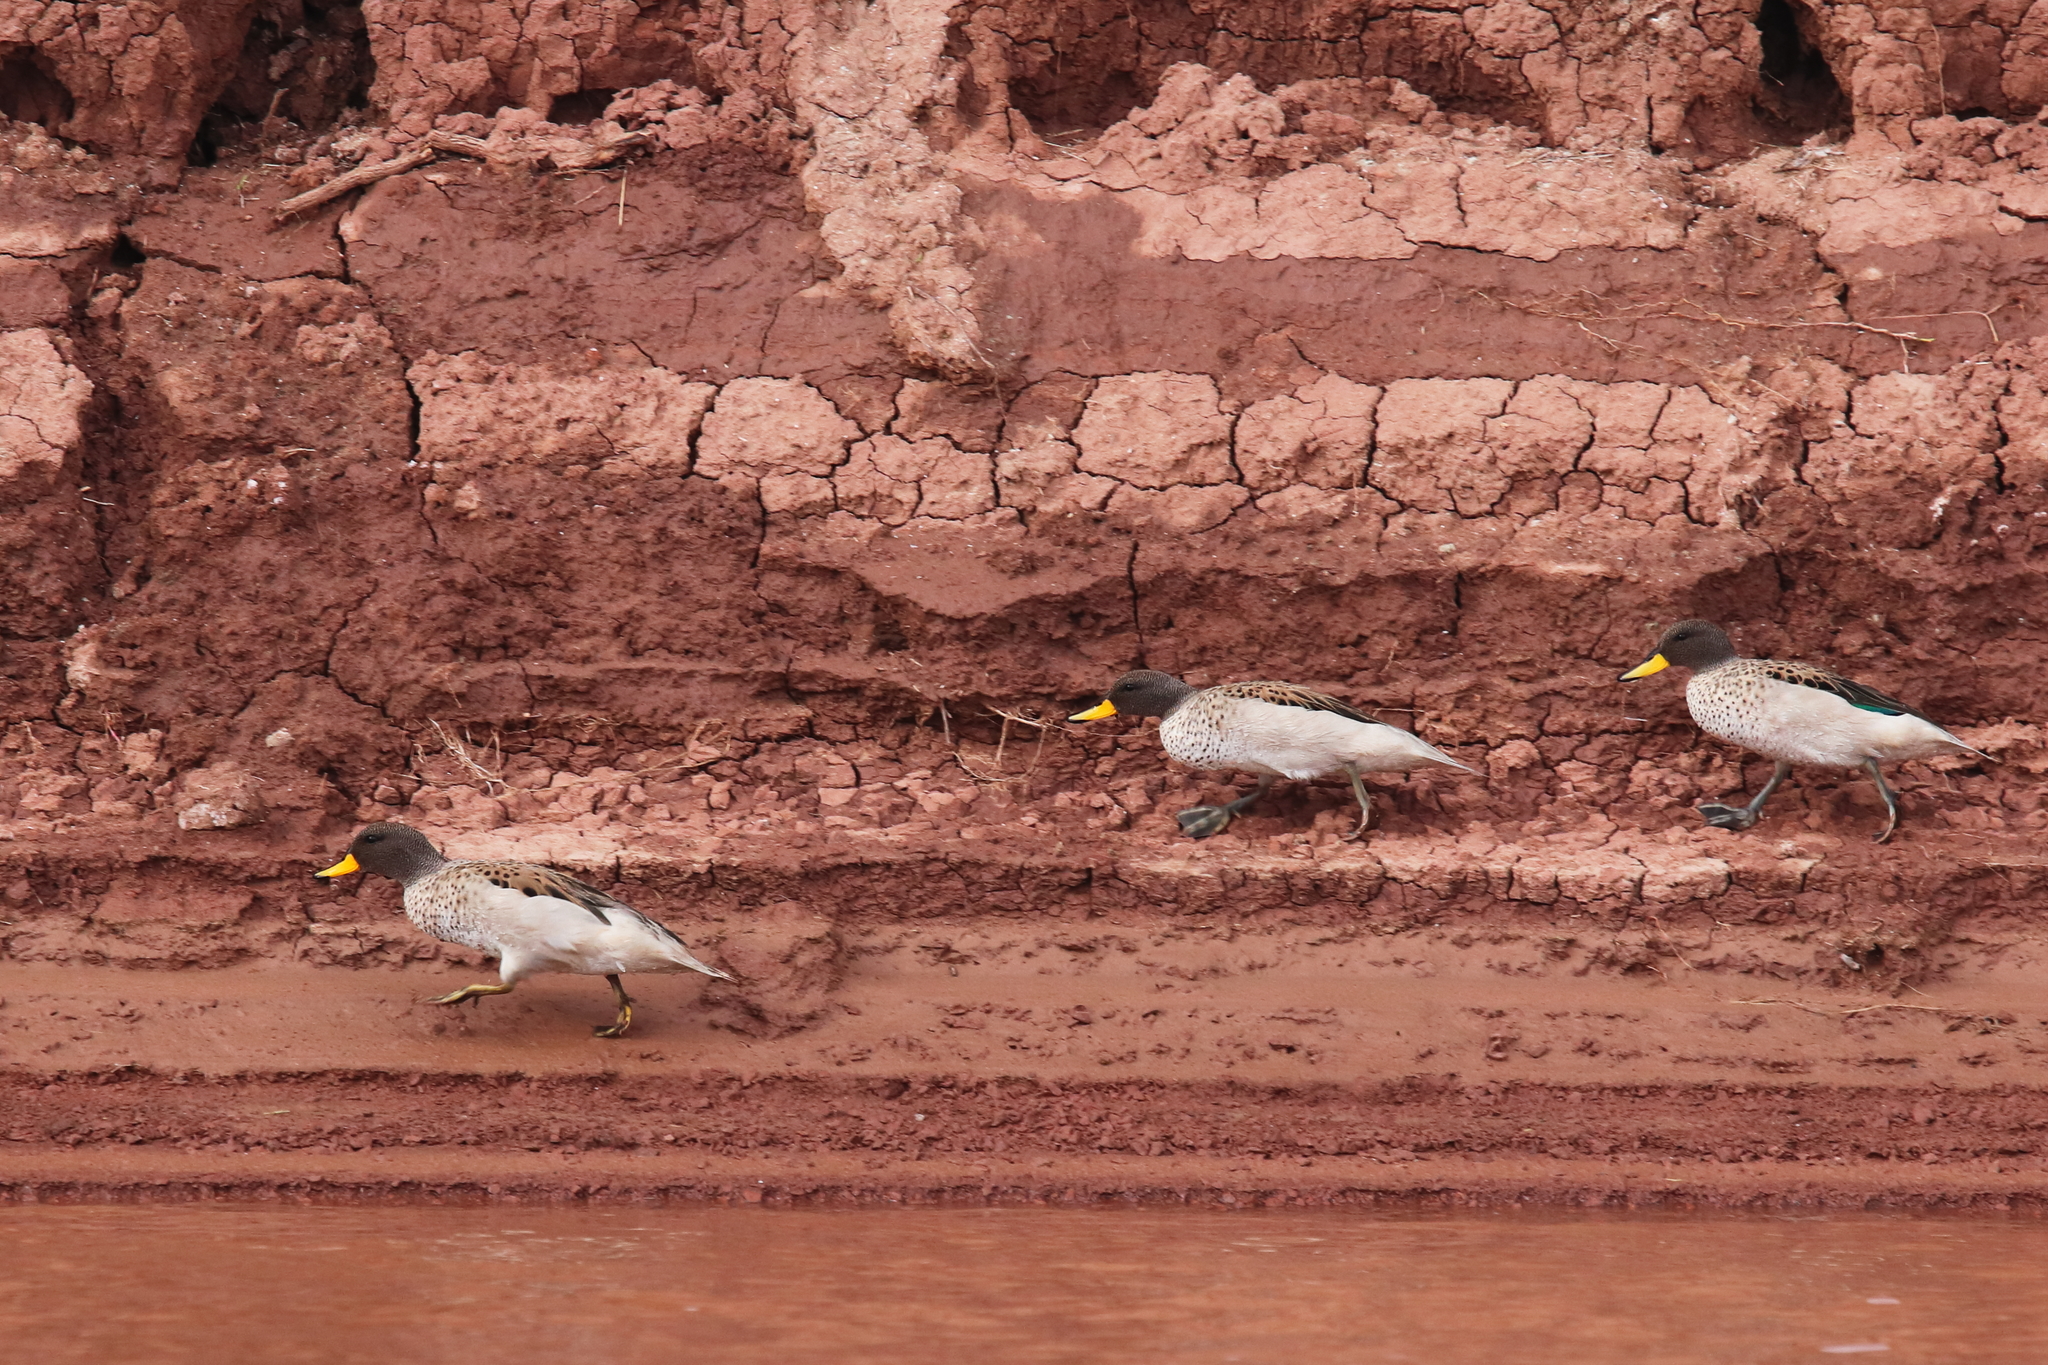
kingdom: Animalia
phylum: Chordata
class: Aves
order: Anseriformes
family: Anatidae
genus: Anas
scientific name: Anas flavirostris
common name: Yellow-billed teal
